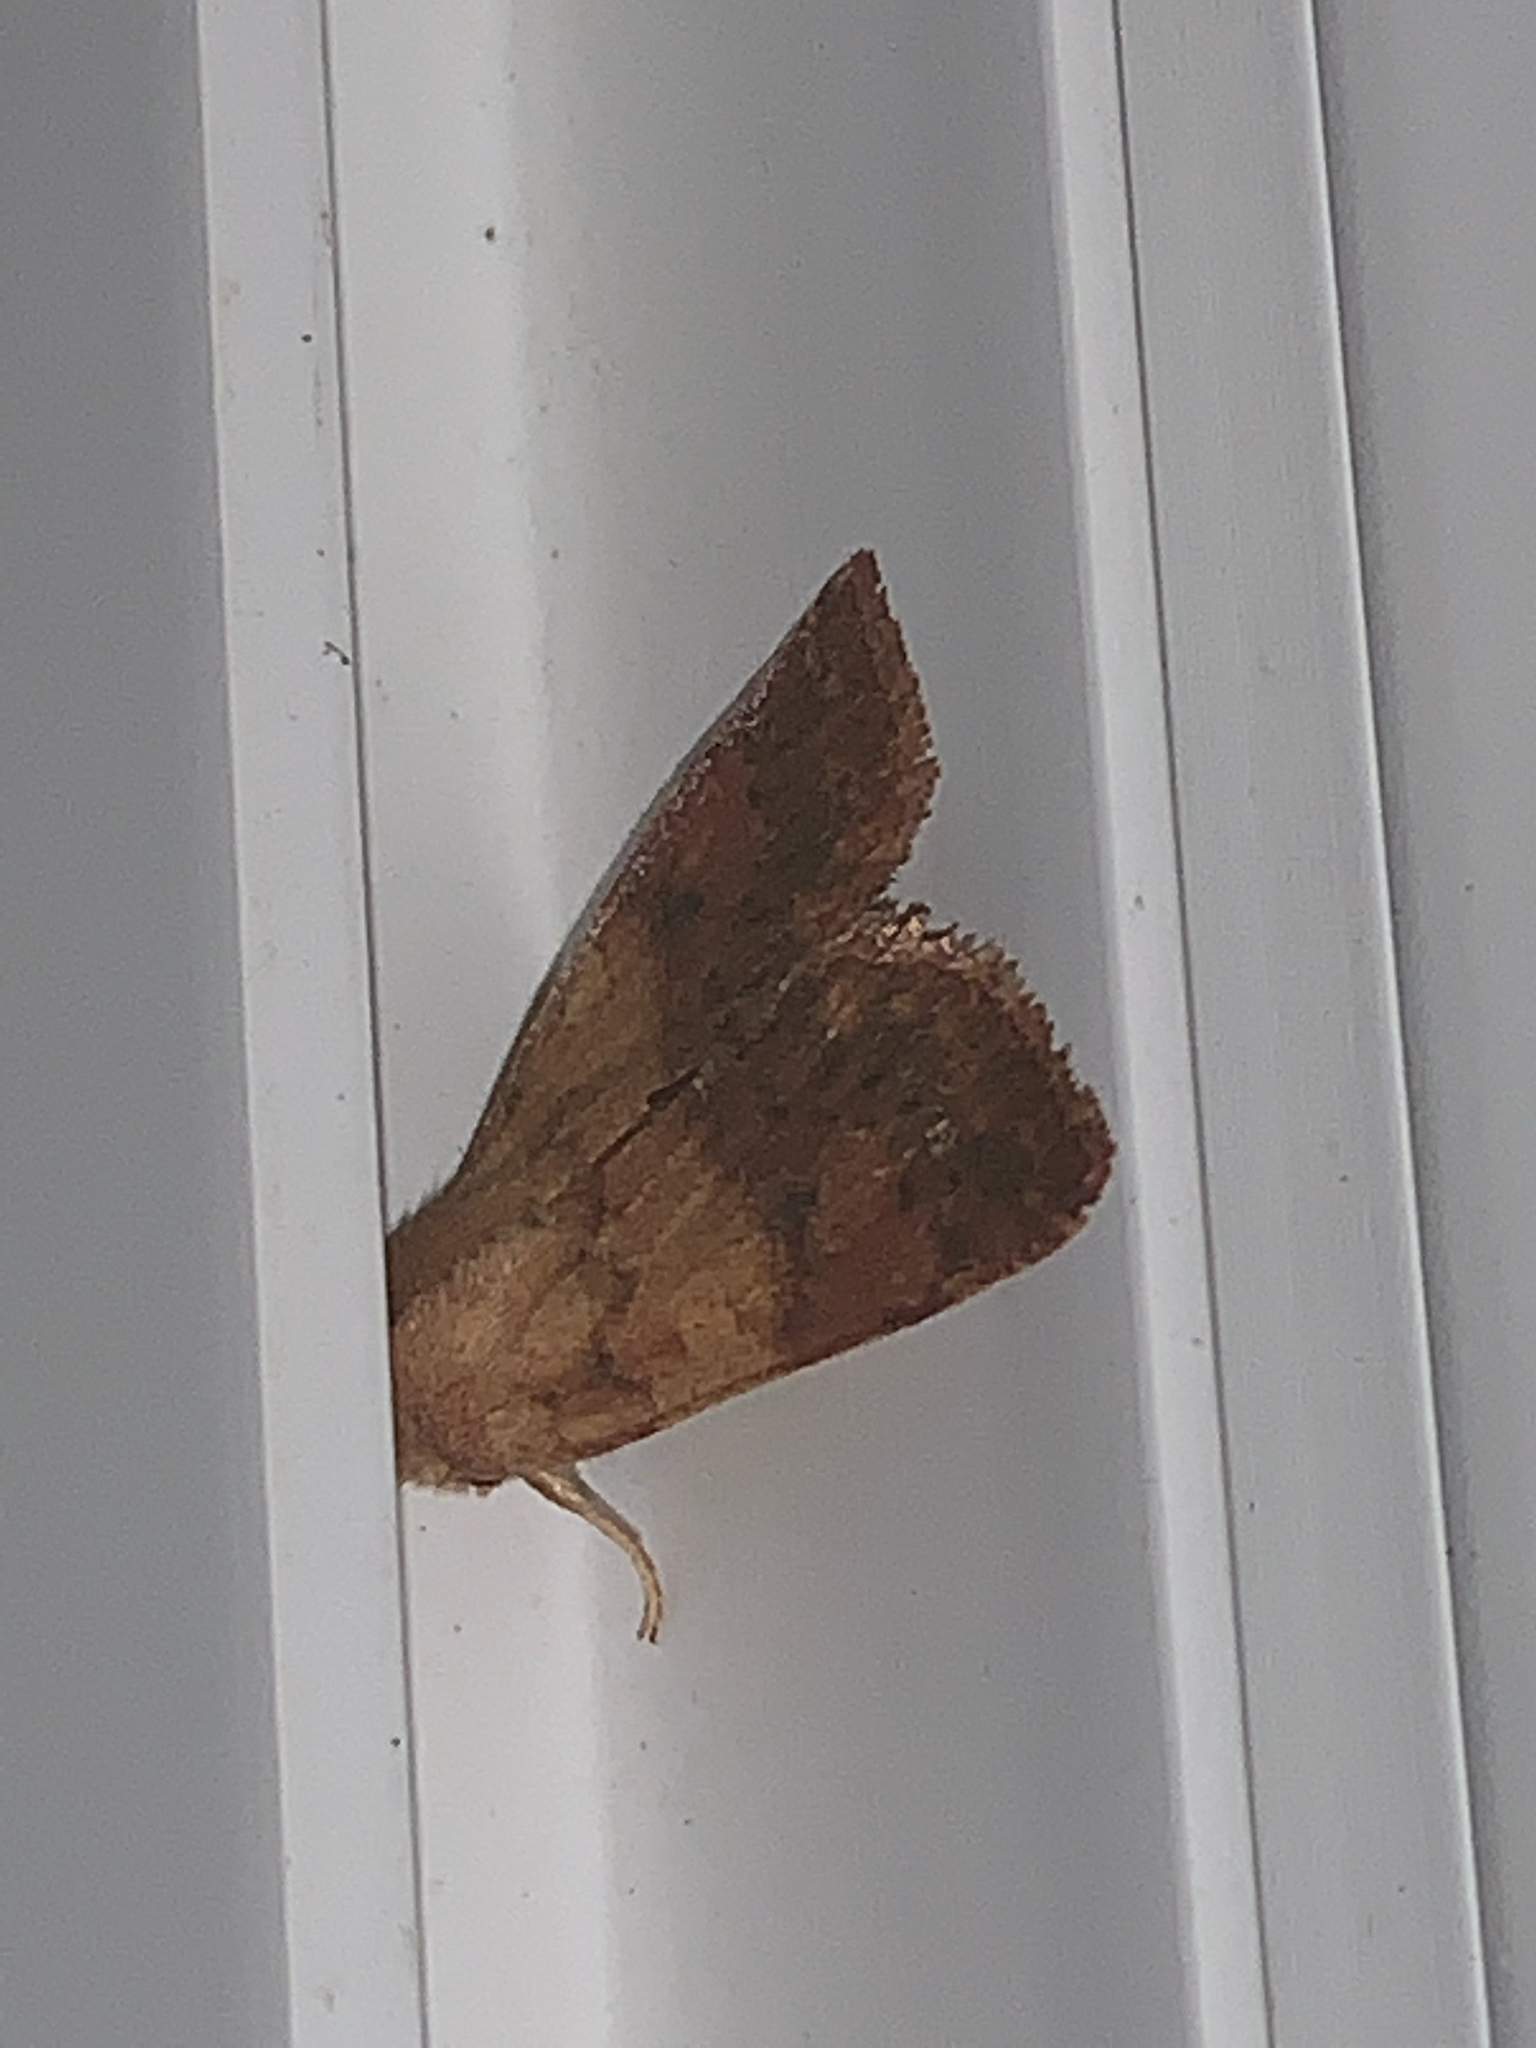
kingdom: Animalia
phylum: Arthropoda
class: Insecta
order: Lepidoptera
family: Noctuidae
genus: Agrochola
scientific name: Agrochola bicolorago
